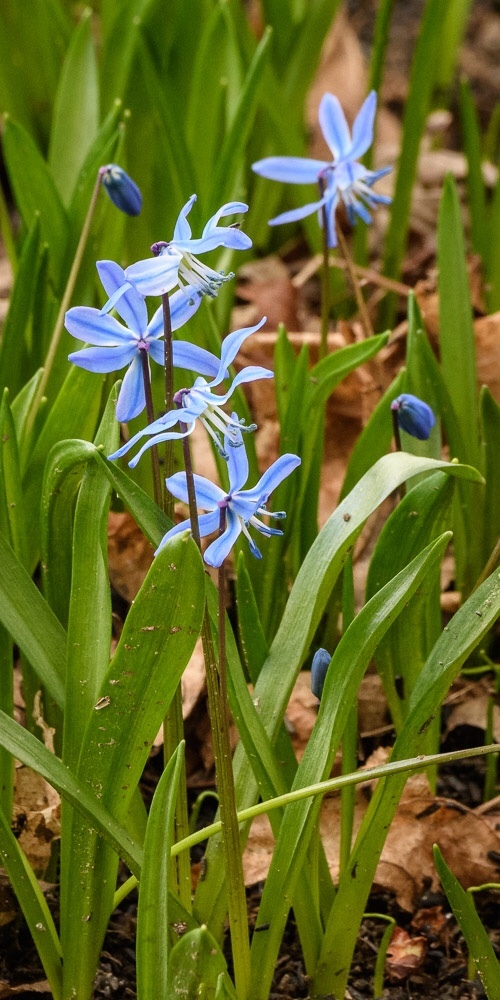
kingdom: Plantae
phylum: Tracheophyta
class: Liliopsida
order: Asparagales
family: Asparagaceae
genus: Scilla
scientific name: Scilla siberica
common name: Siberian squill
